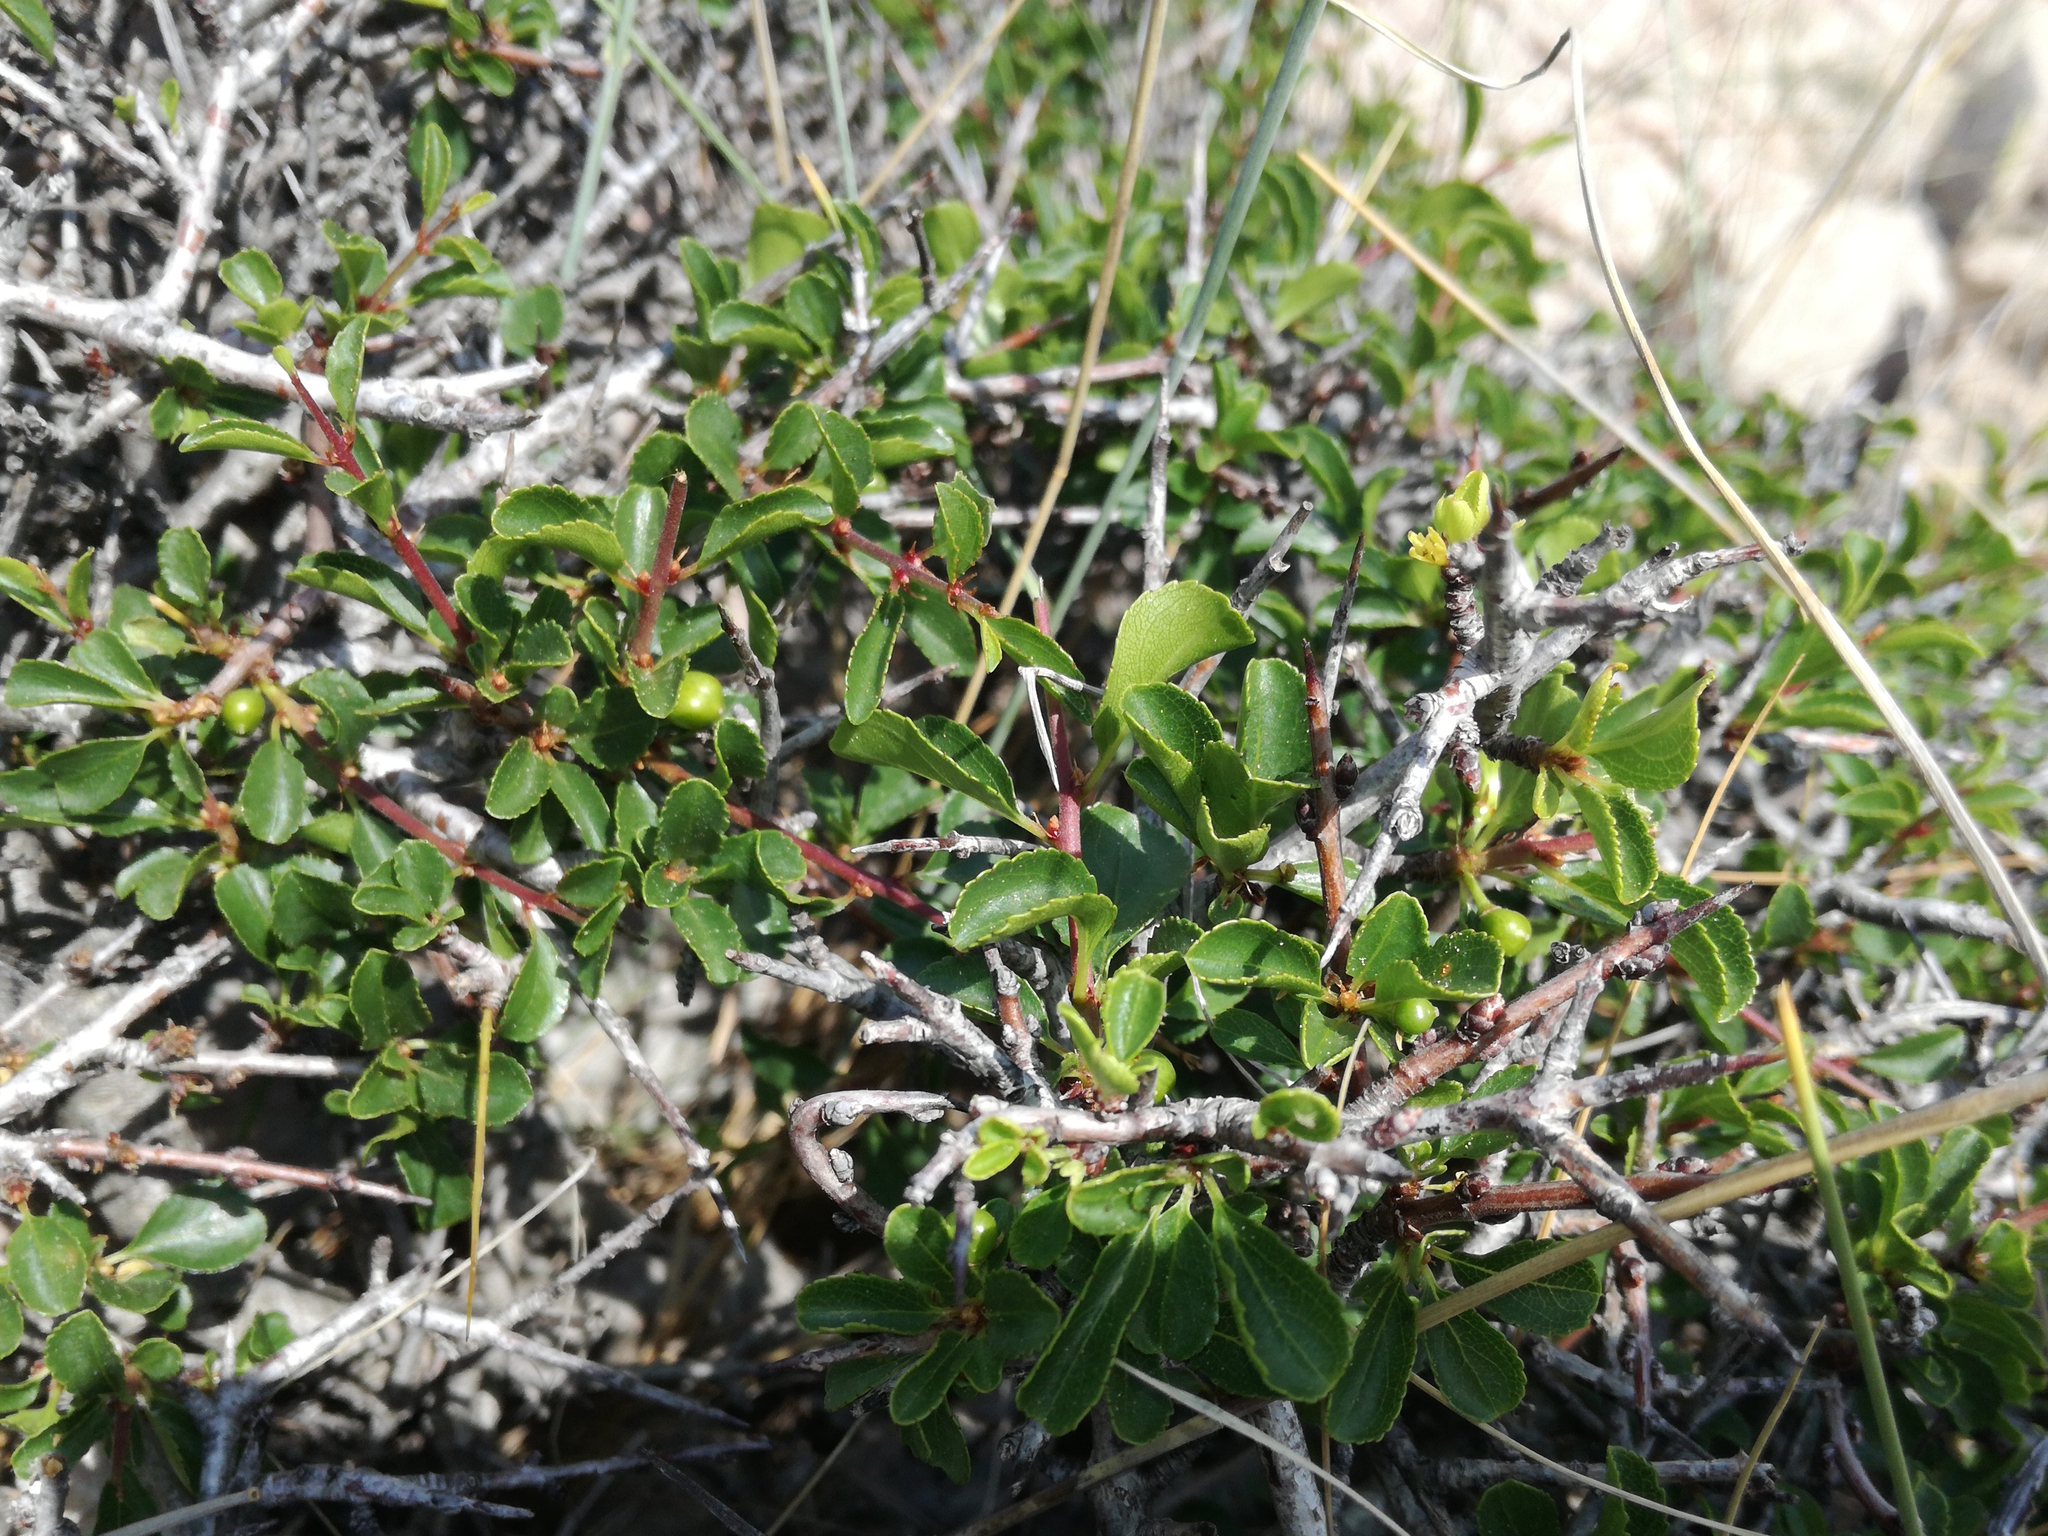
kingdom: Plantae
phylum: Tracheophyta
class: Magnoliopsida
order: Rosales
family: Rhamnaceae
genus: Rhamnus
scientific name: Rhamnus intermedia
